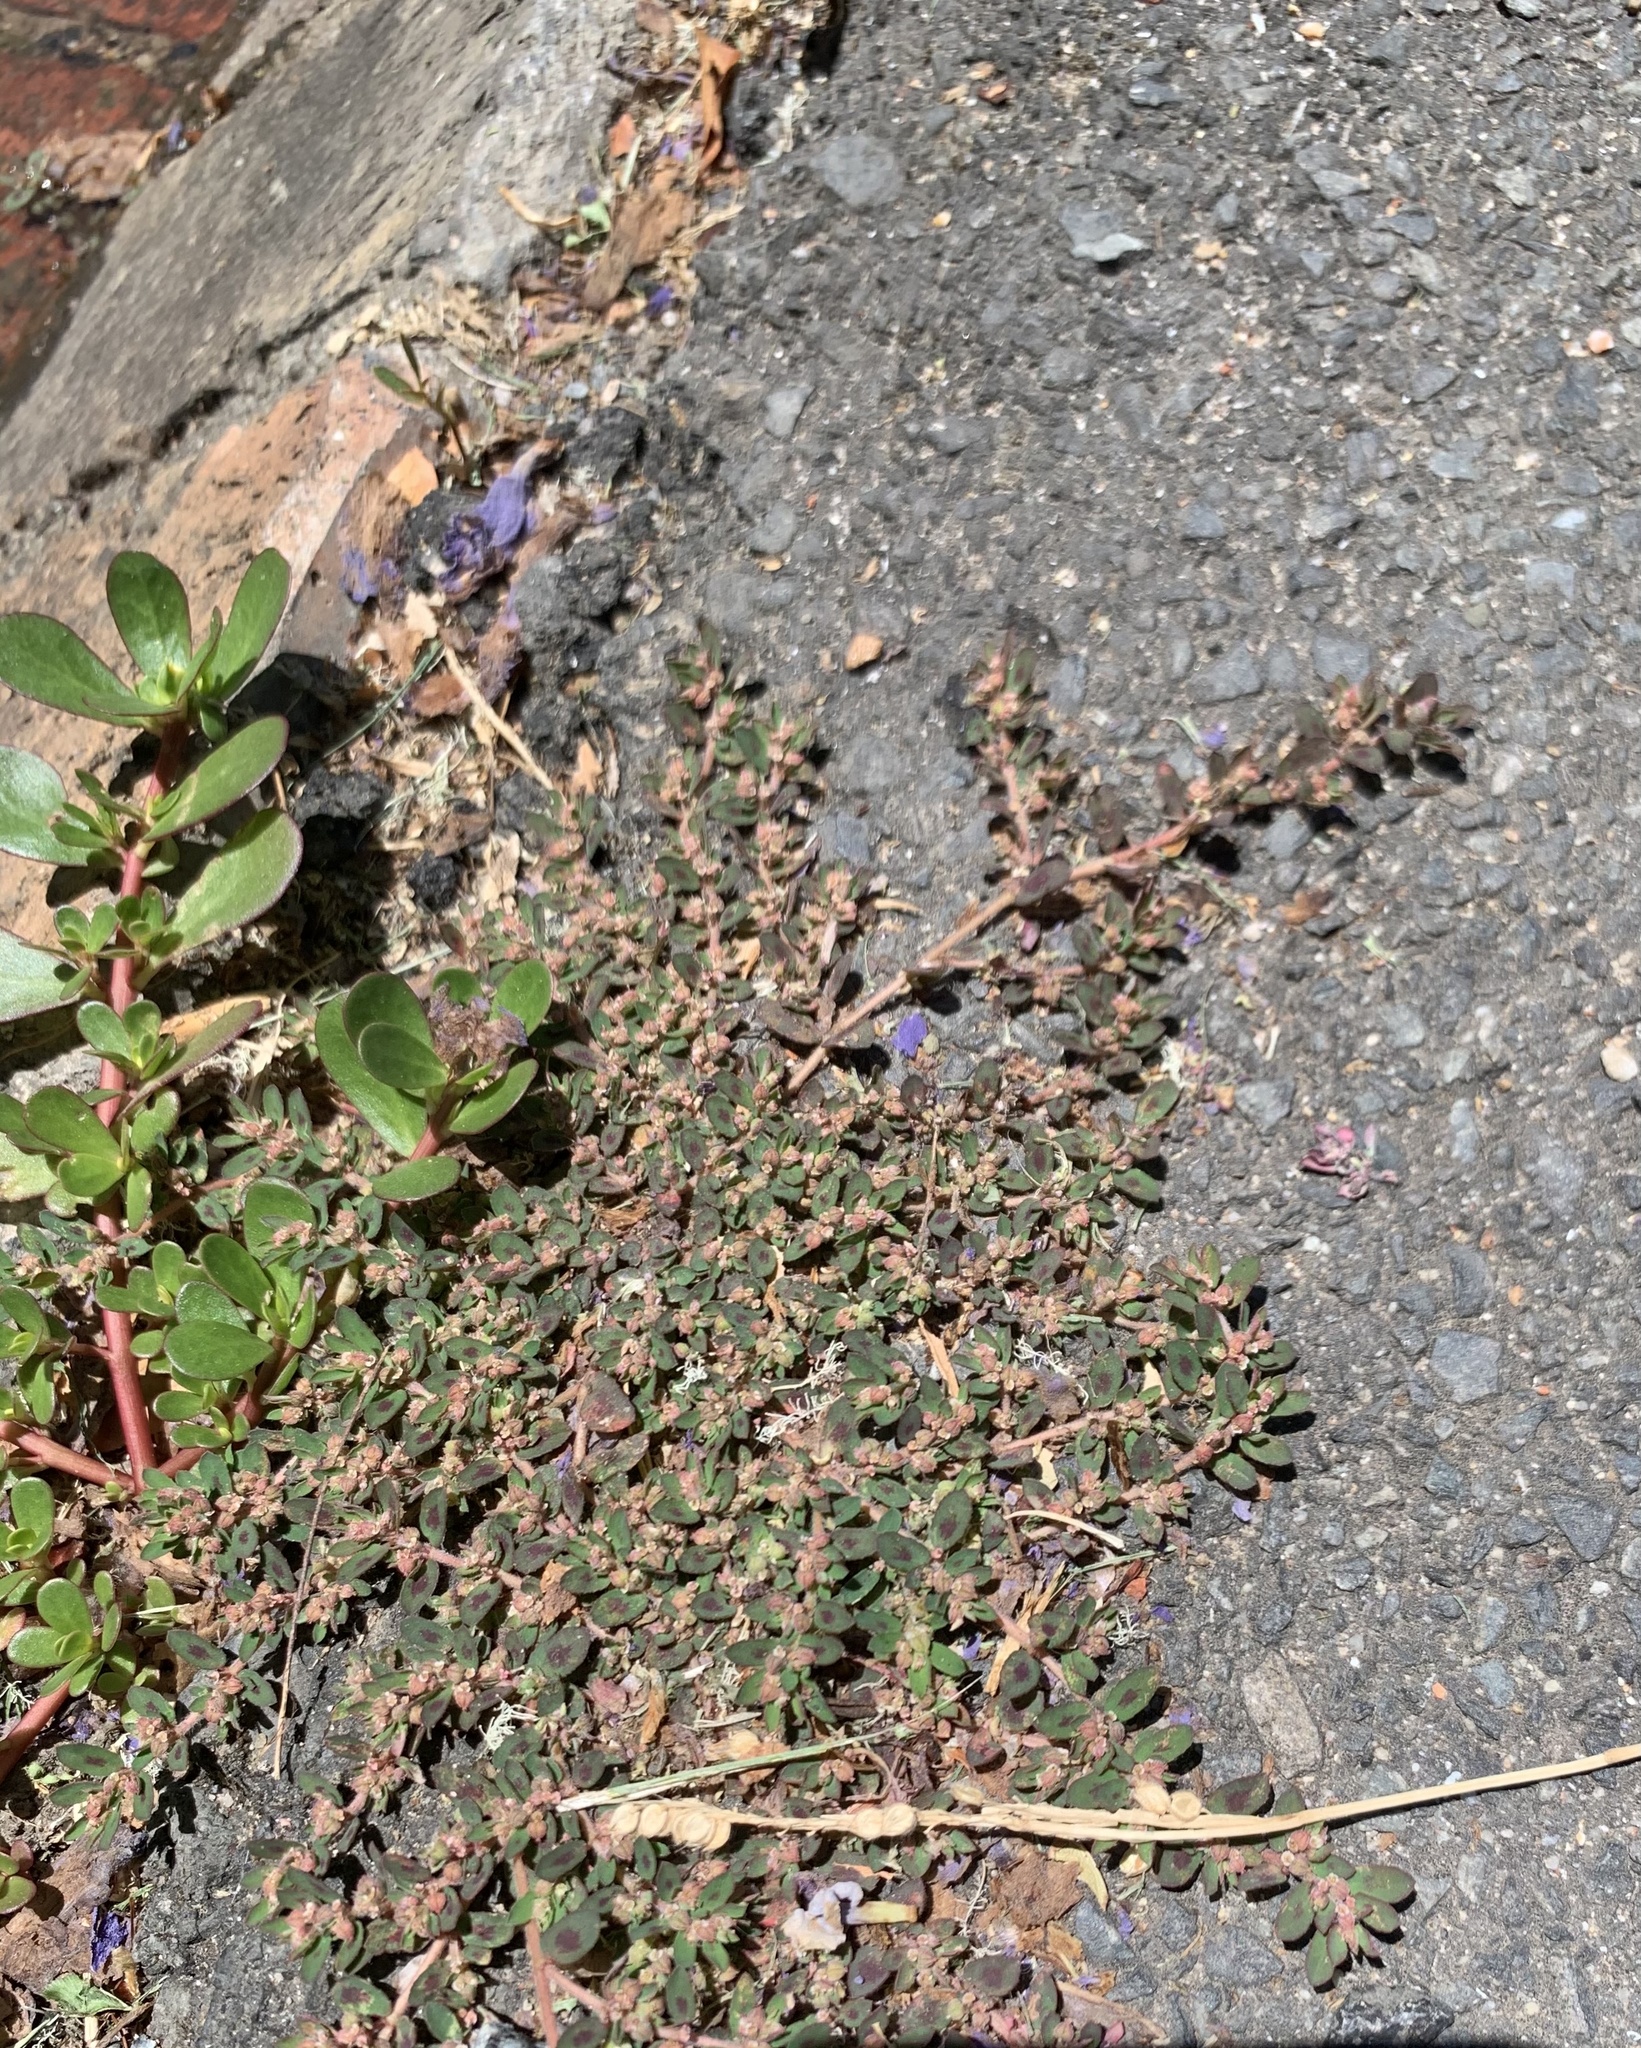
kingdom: Plantae
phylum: Tracheophyta
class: Magnoliopsida
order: Malpighiales
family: Euphorbiaceae
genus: Euphorbia
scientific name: Euphorbia maculata
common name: Spotted spurge
